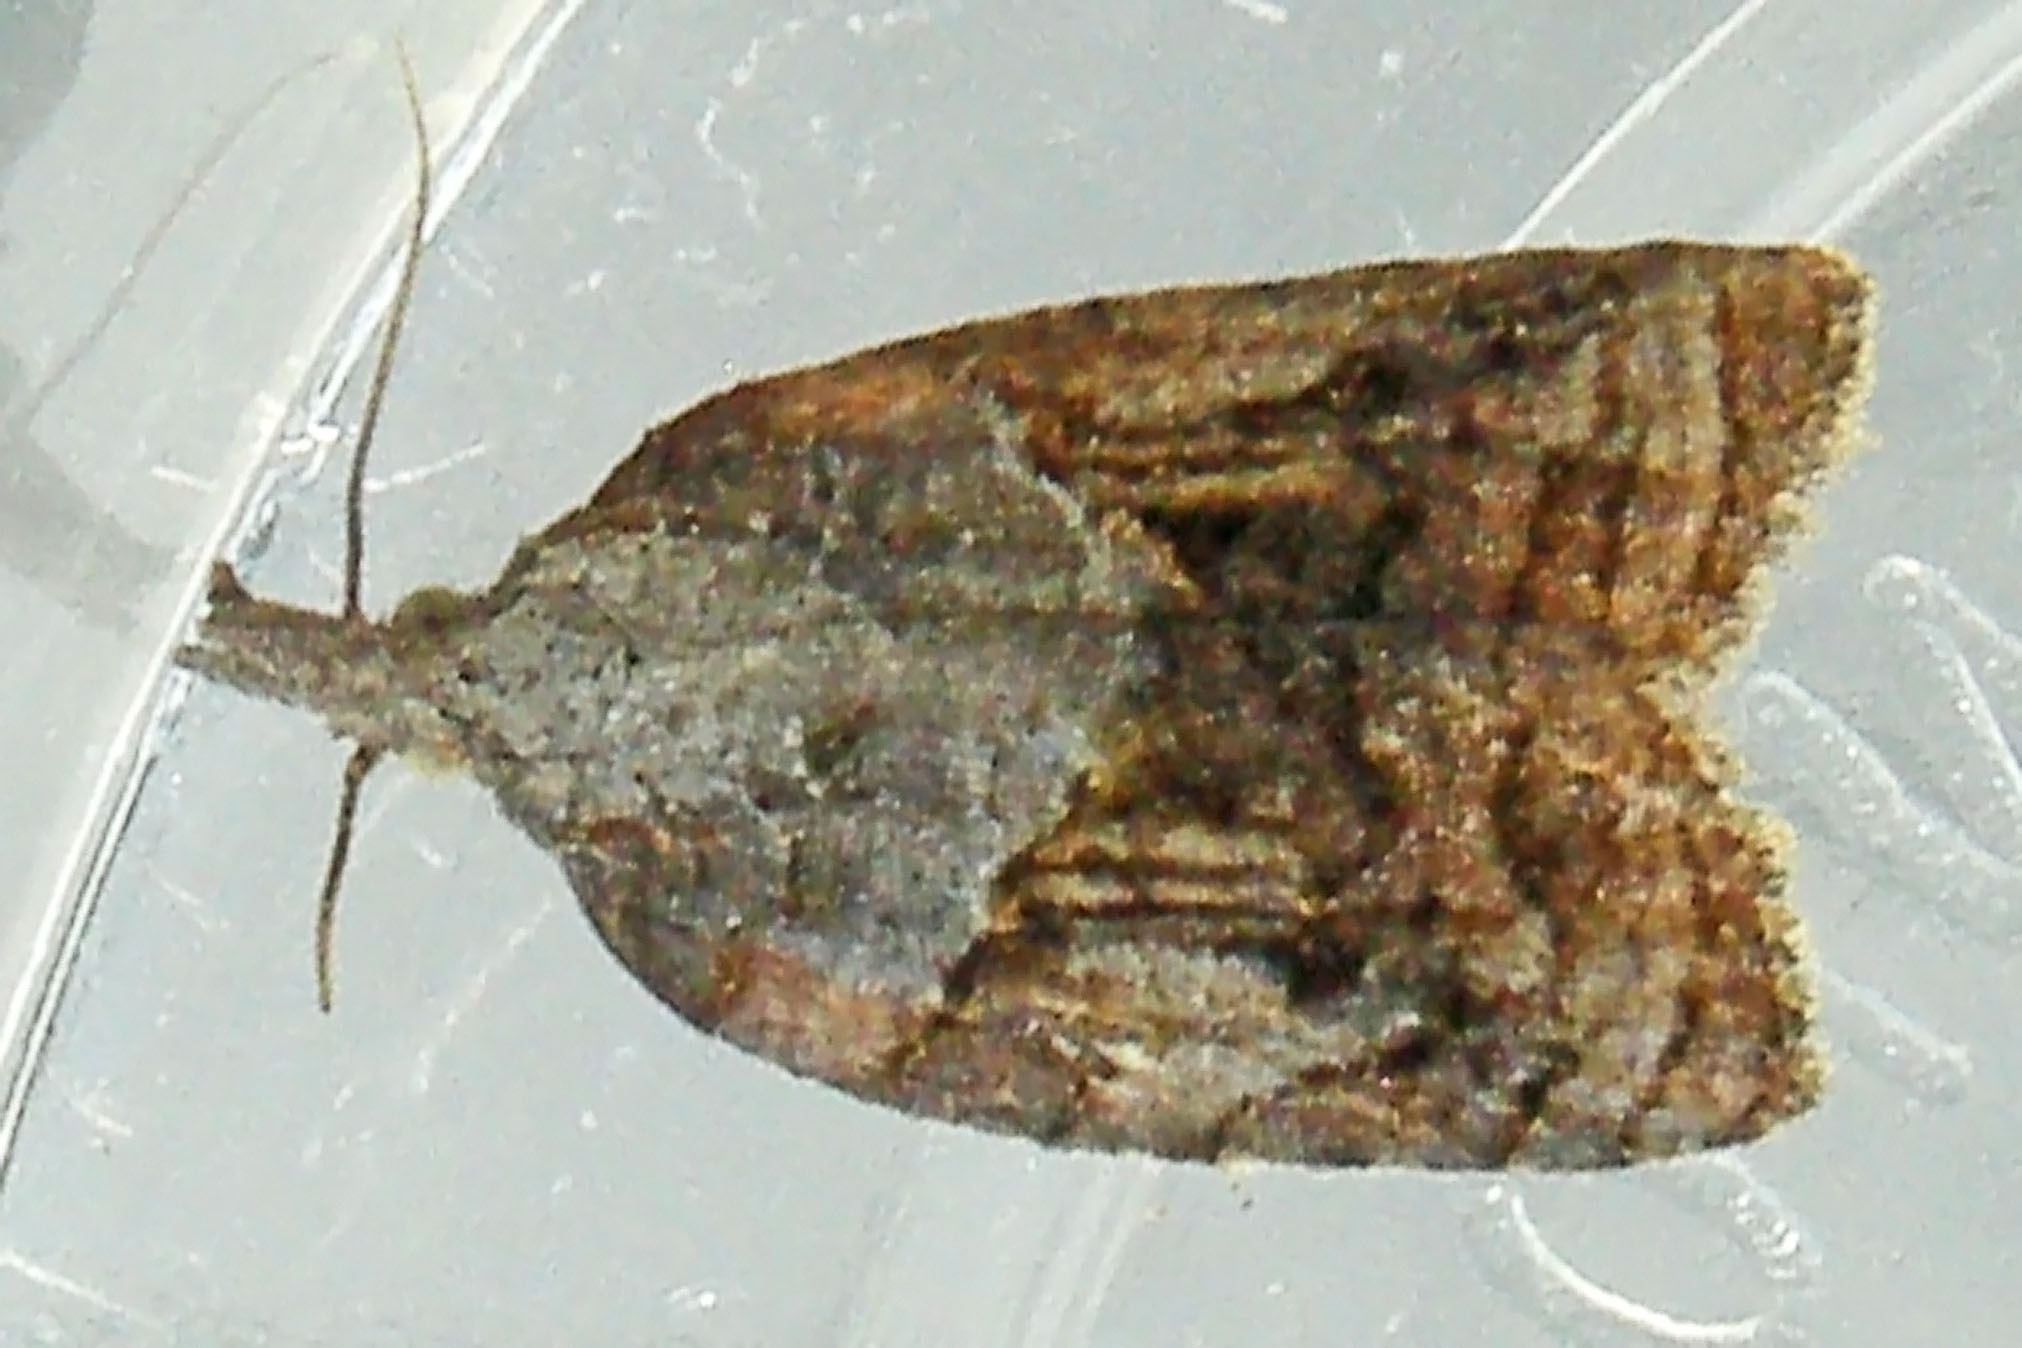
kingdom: Animalia
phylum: Arthropoda
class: Insecta
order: Lepidoptera
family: Tortricidae
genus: Platynota
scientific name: Platynota idaeusalis
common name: Tufted apple bud moth
